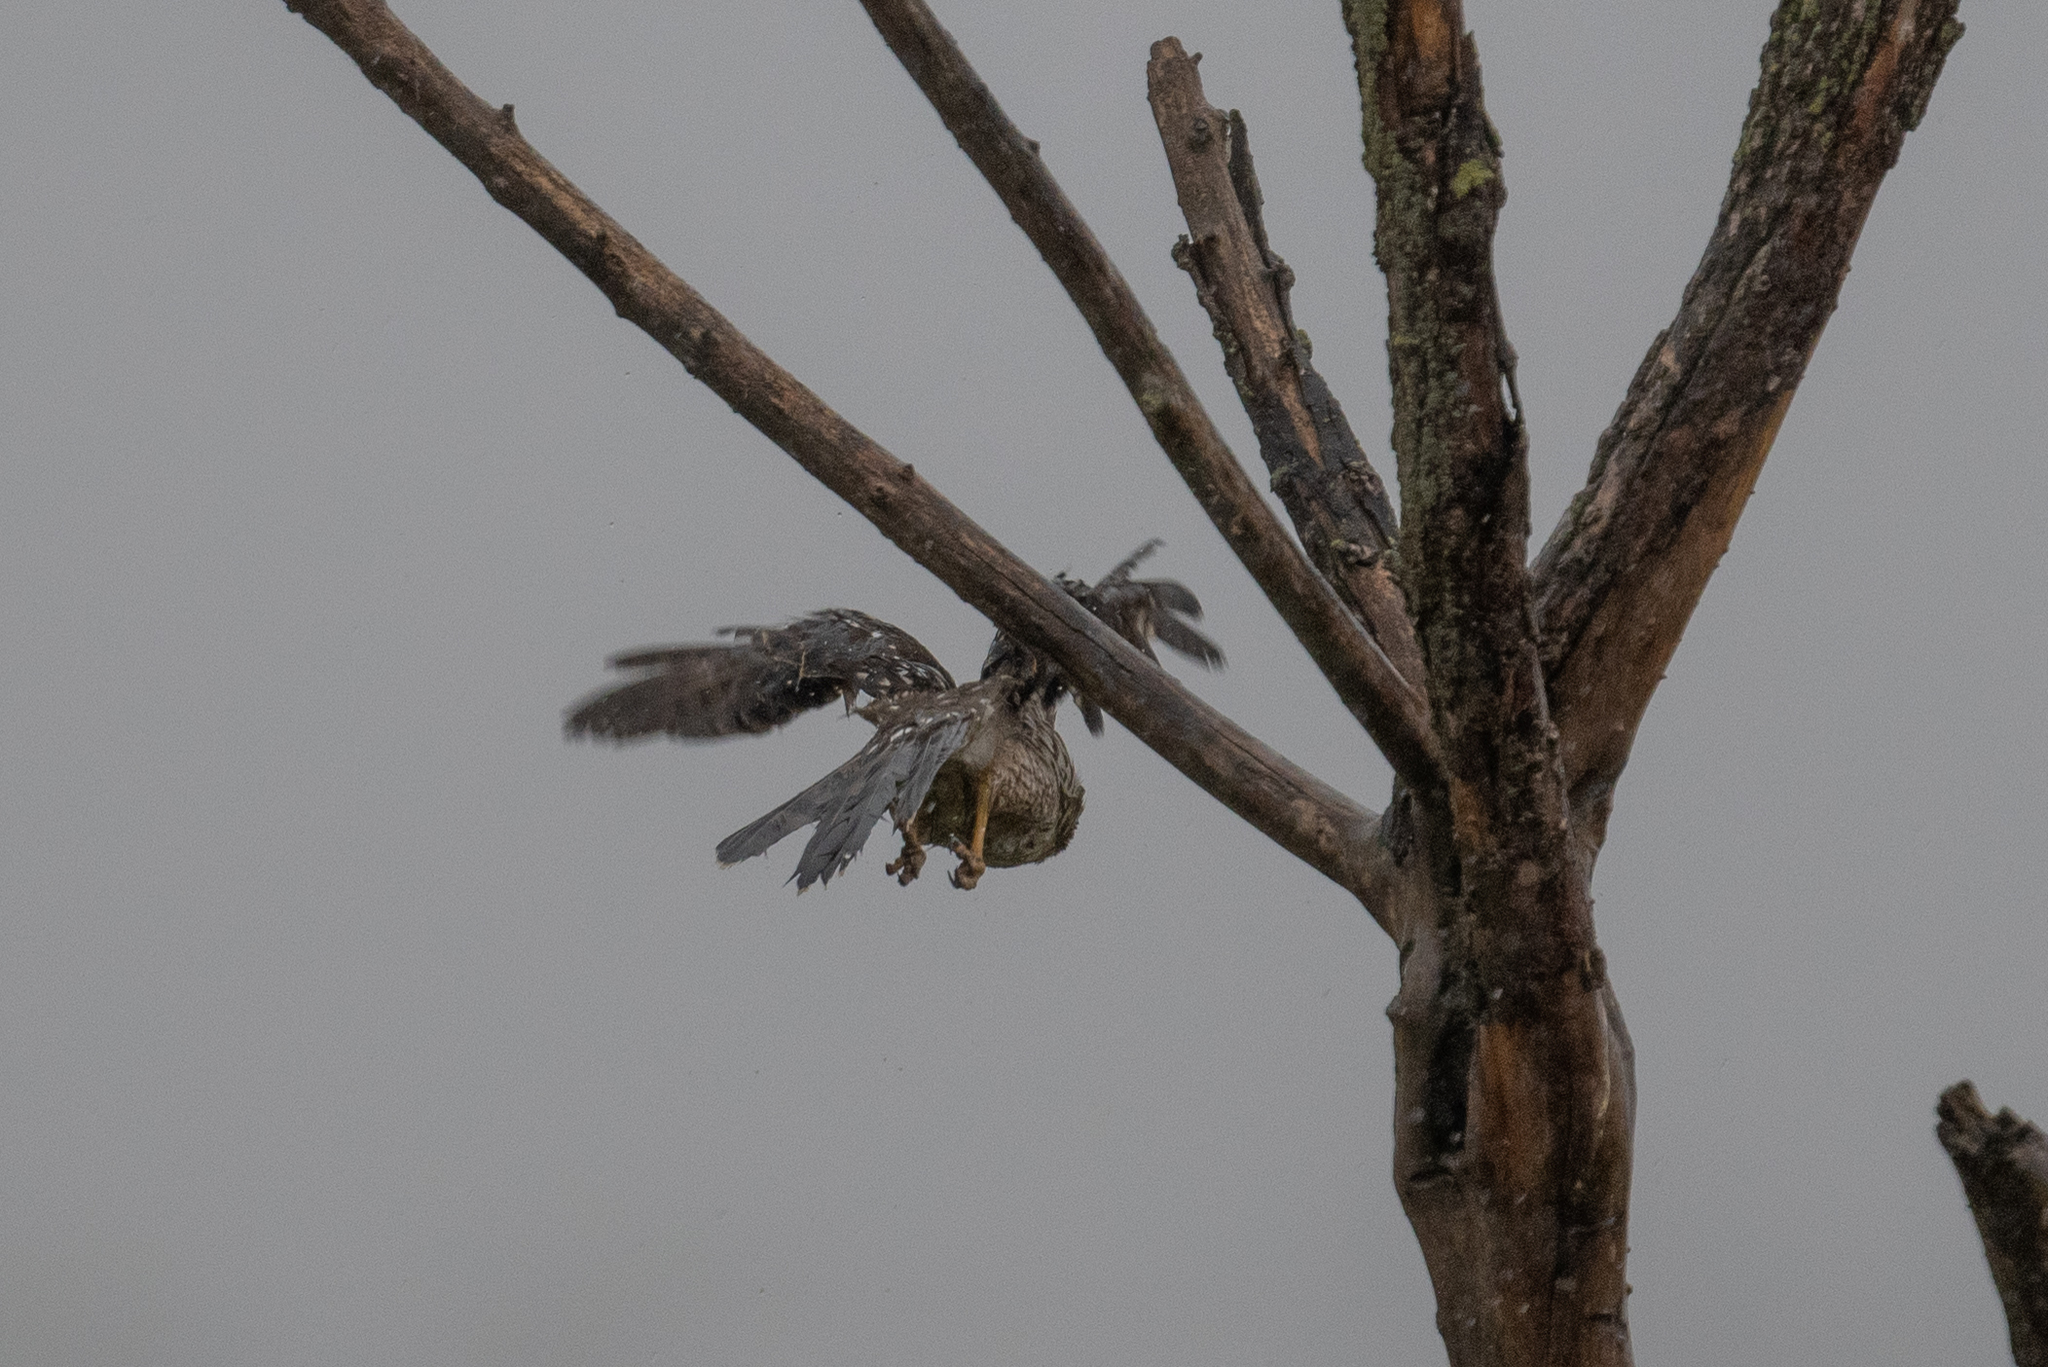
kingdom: Animalia
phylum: Chordata
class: Aves
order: Accipitriformes
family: Accipitridae
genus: Accipiter
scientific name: Accipiter cooperii
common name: Cooper's hawk
